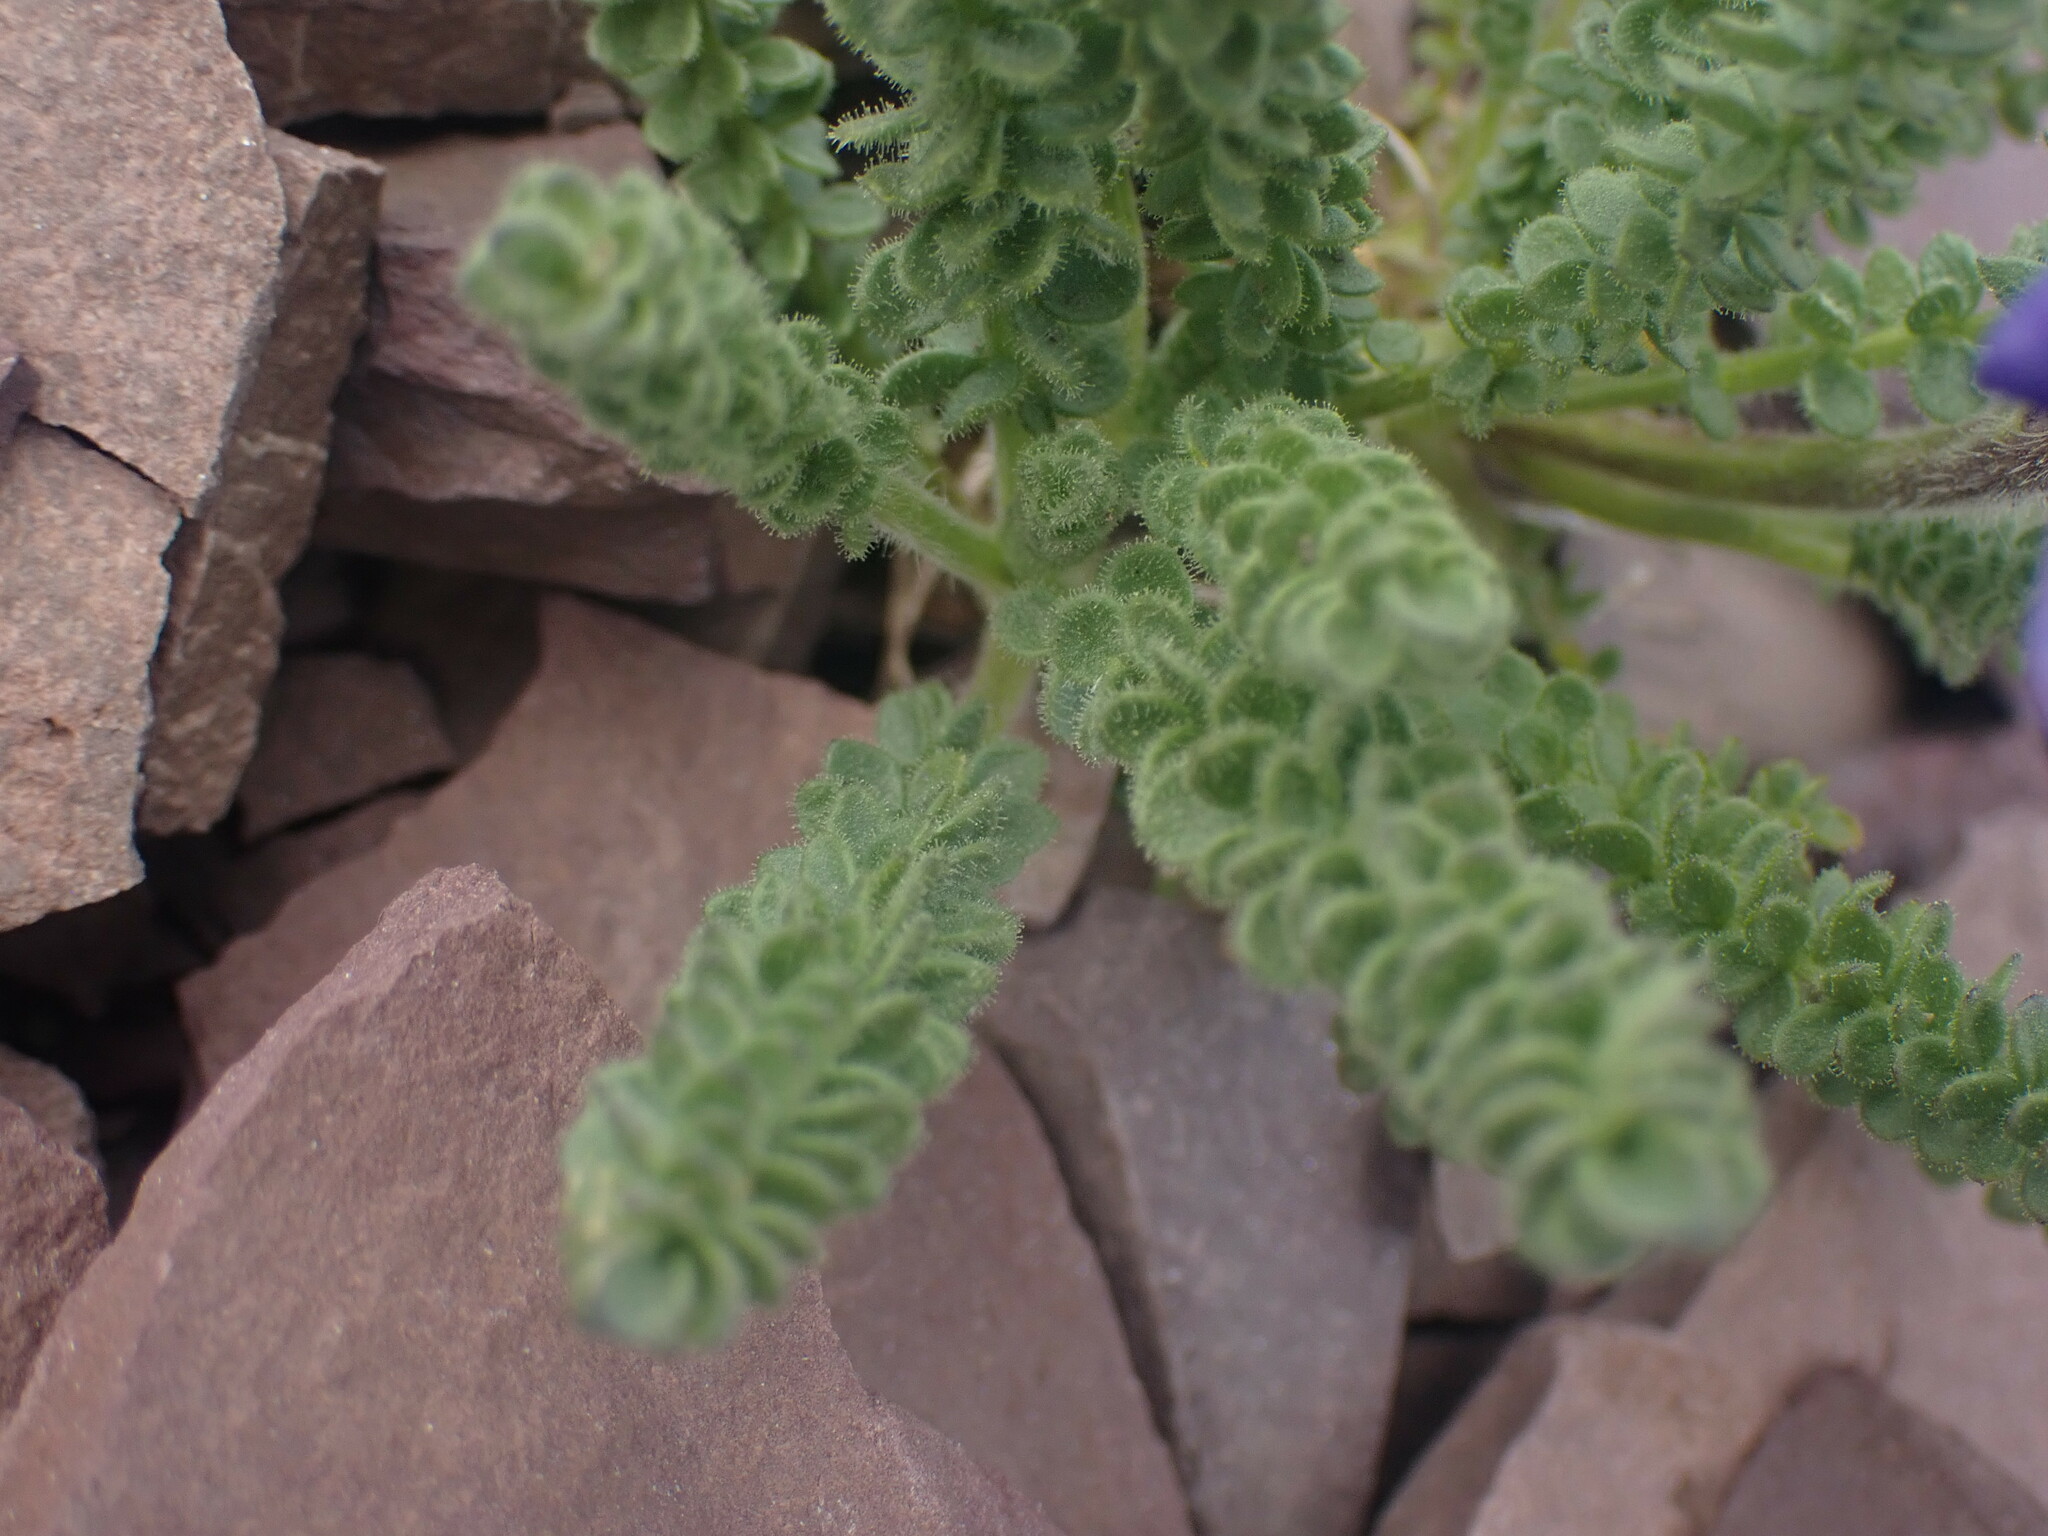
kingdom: Plantae
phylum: Tracheophyta
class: Magnoliopsida
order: Ericales
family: Polemoniaceae
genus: Polemonium
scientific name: Polemonium viscosum
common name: Skunk jacob's-ladder
